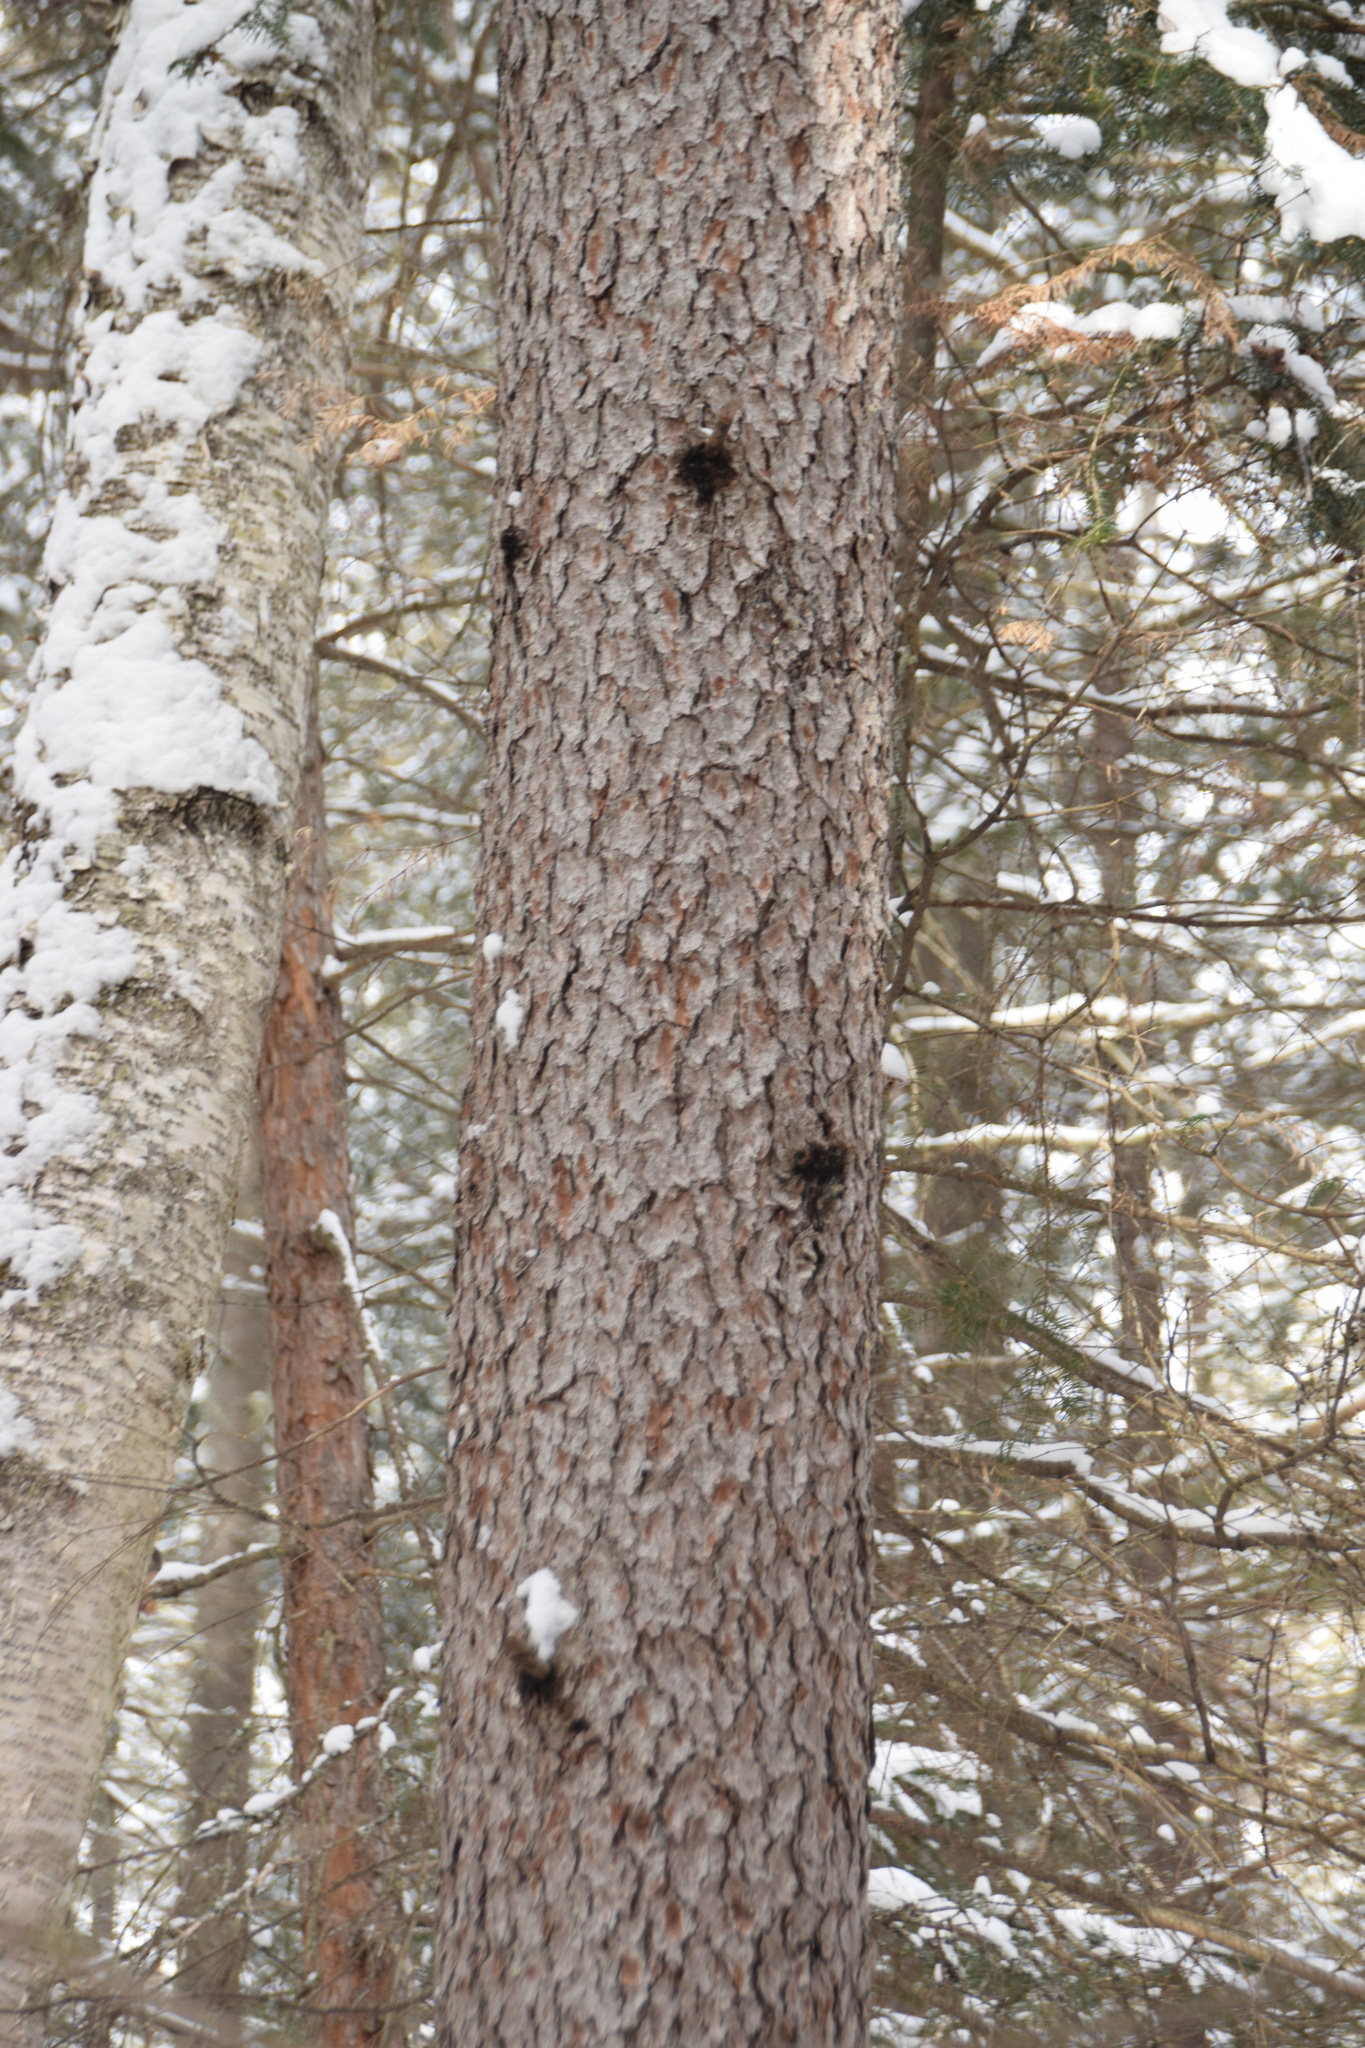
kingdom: Plantae
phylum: Tracheophyta
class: Pinopsida
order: Pinales
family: Pinaceae
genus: Larix
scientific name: Larix laricina
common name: American larch
